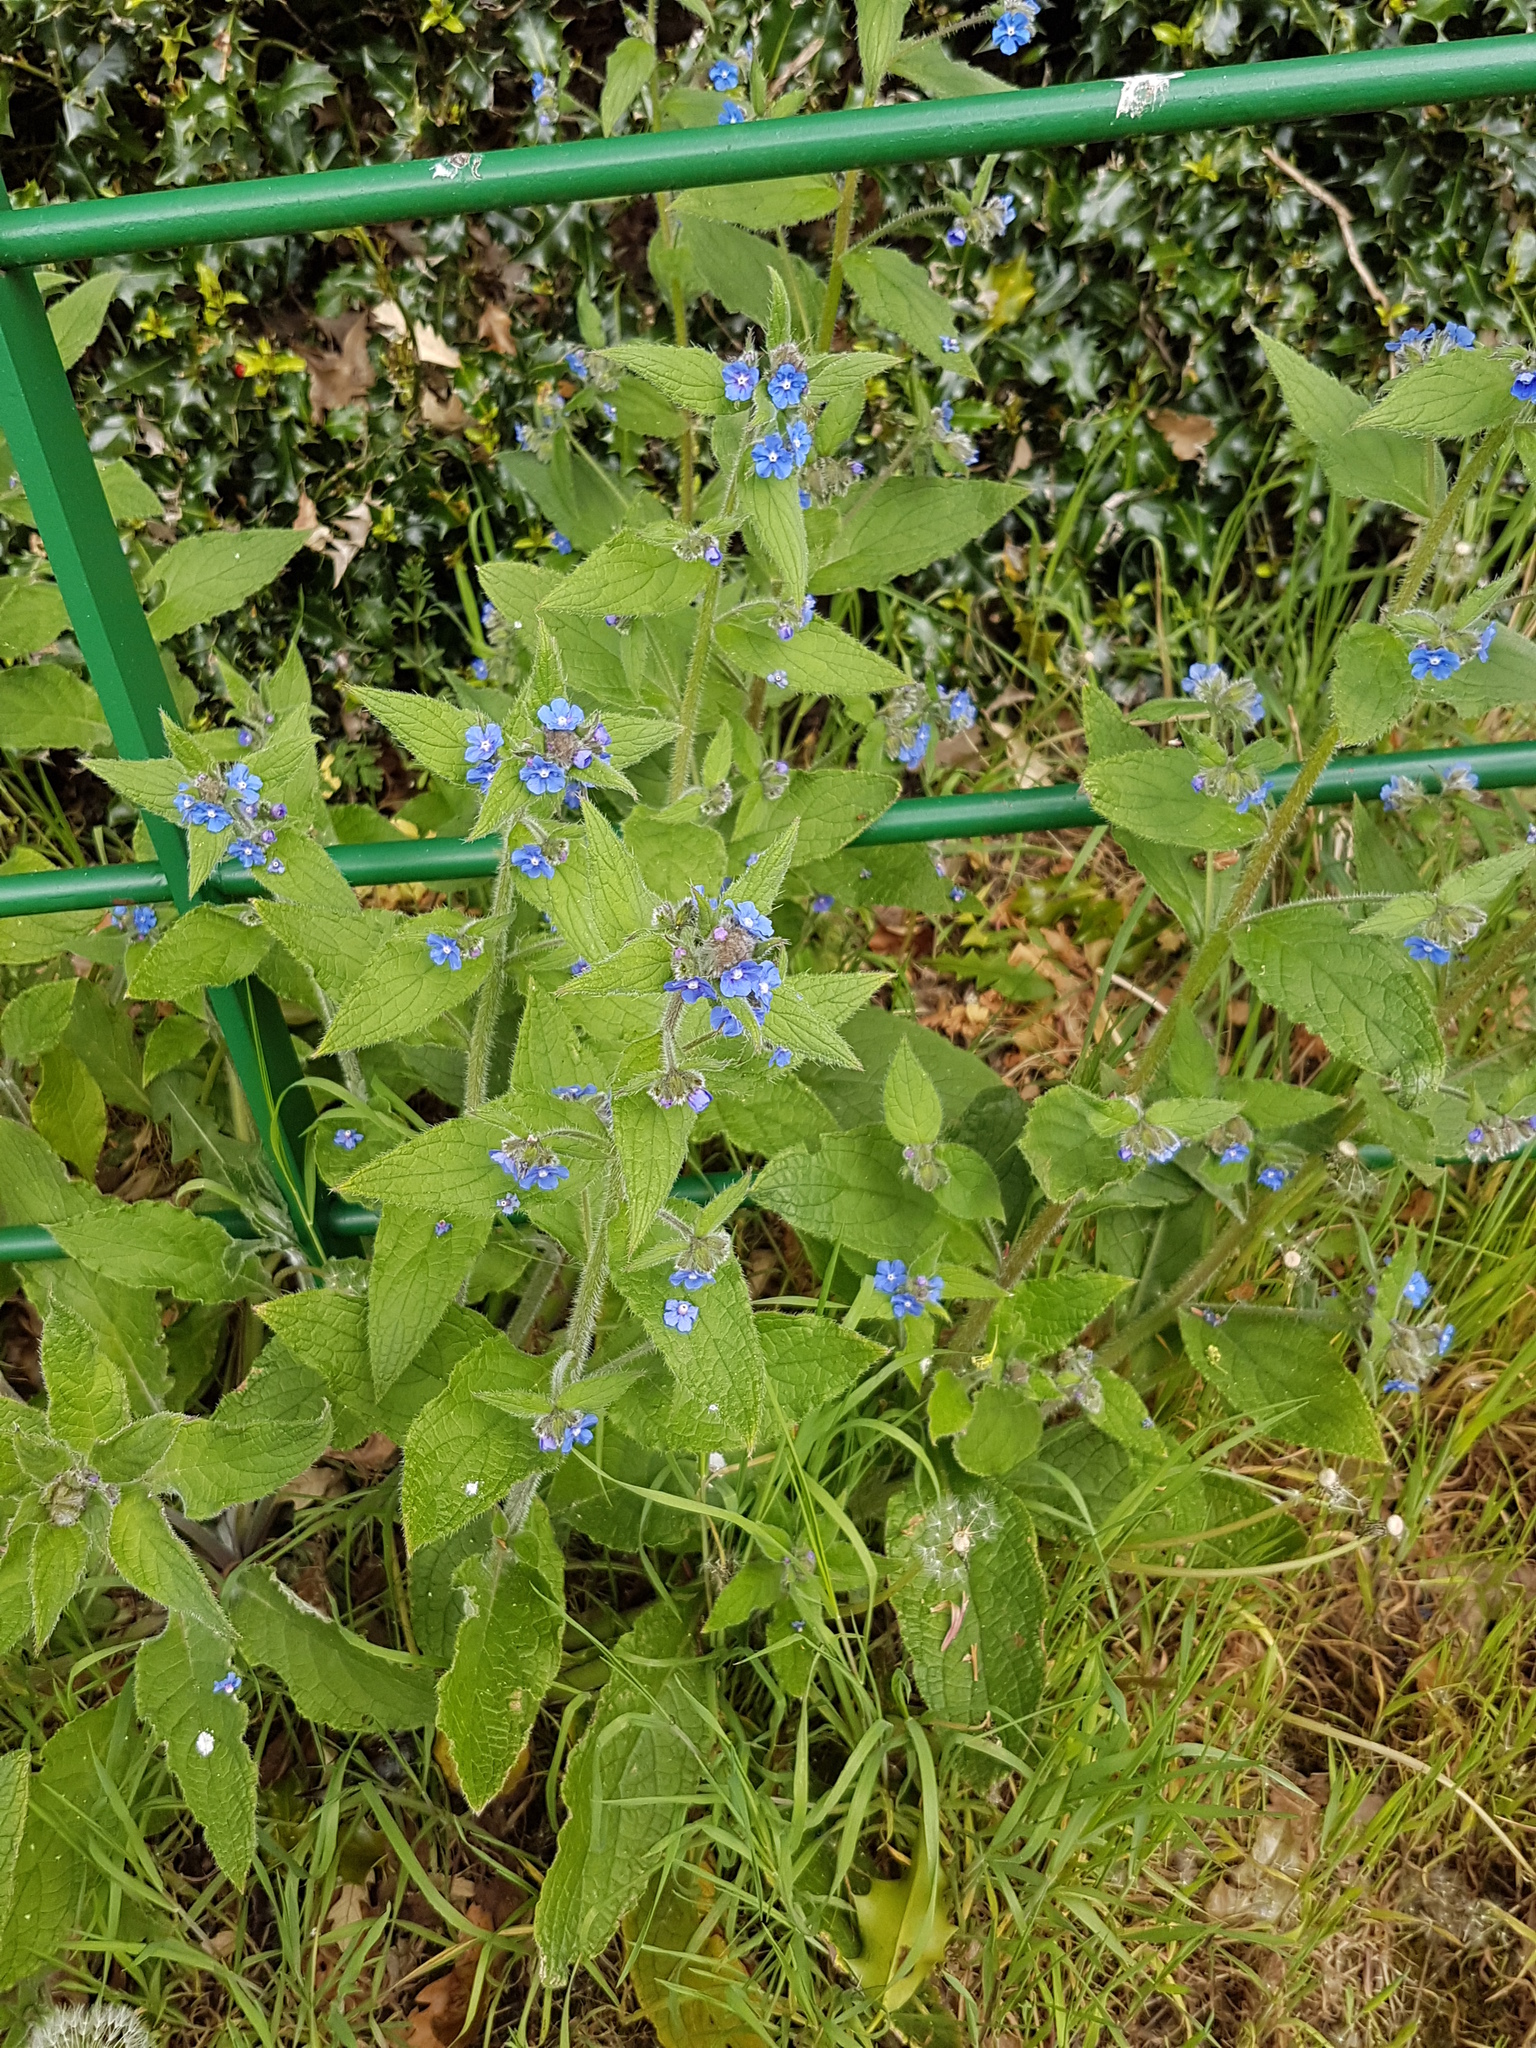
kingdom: Plantae
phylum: Tracheophyta
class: Magnoliopsida
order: Boraginales
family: Boraginaceae
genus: Pentaglottis
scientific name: Pentaglottis sempervirens
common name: Green alkanet
